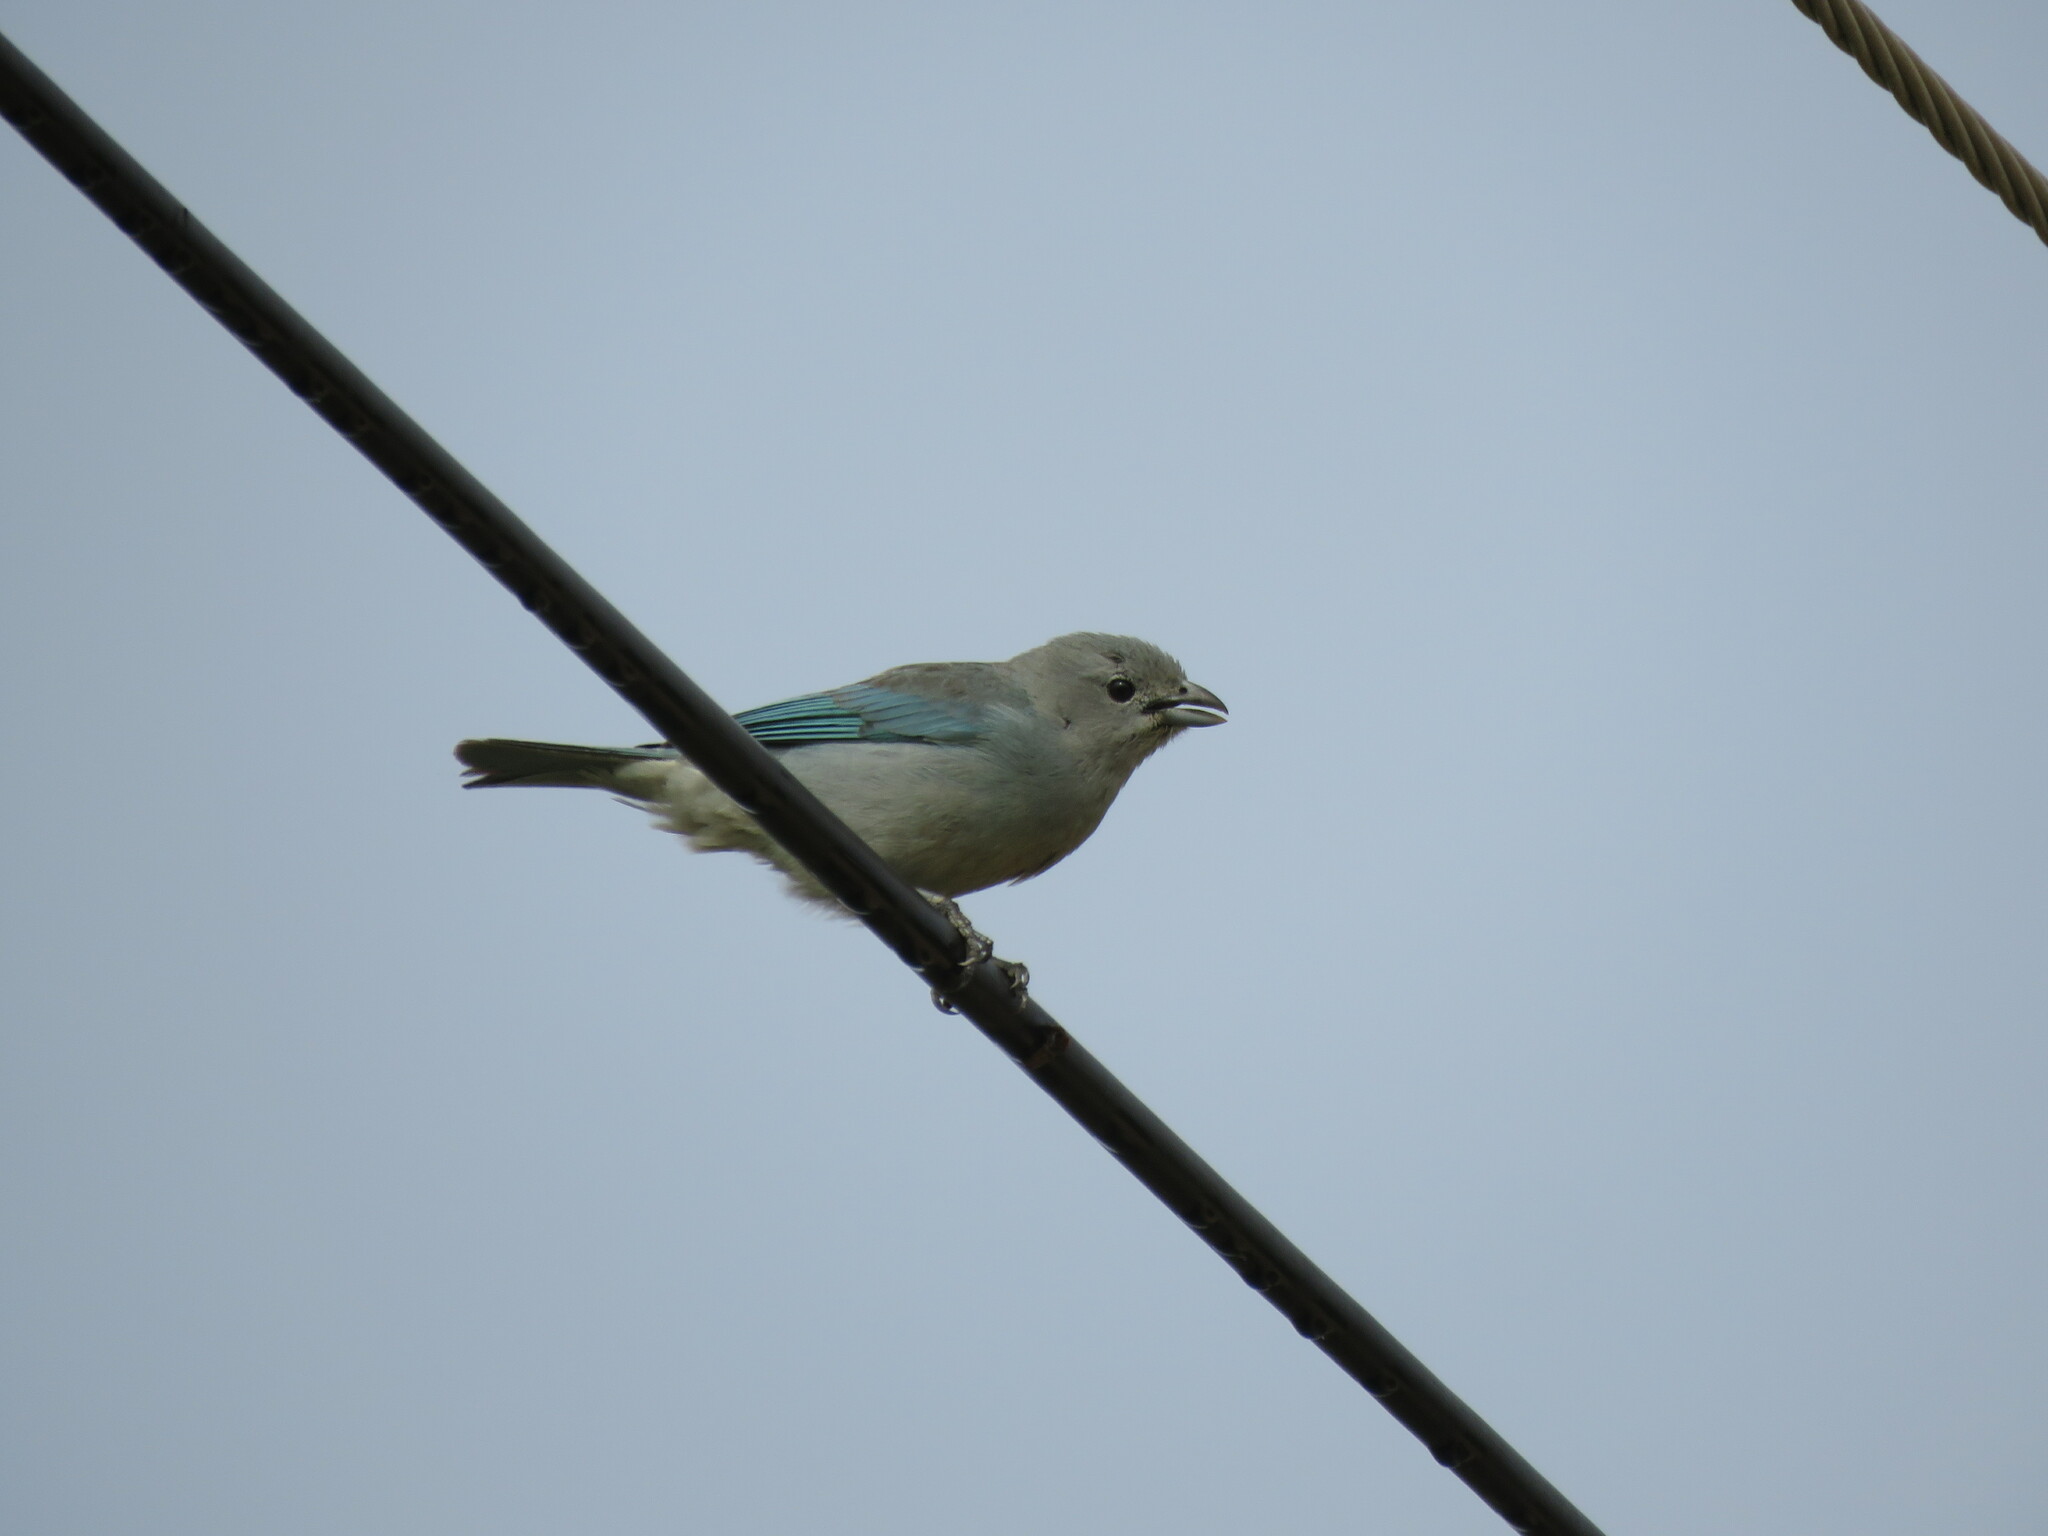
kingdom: Animalia
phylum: Chordata
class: Aves
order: Passeriformes
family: Thraupidae
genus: Thraupis
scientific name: Thraupis sayaca
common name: Sayaca tanager
